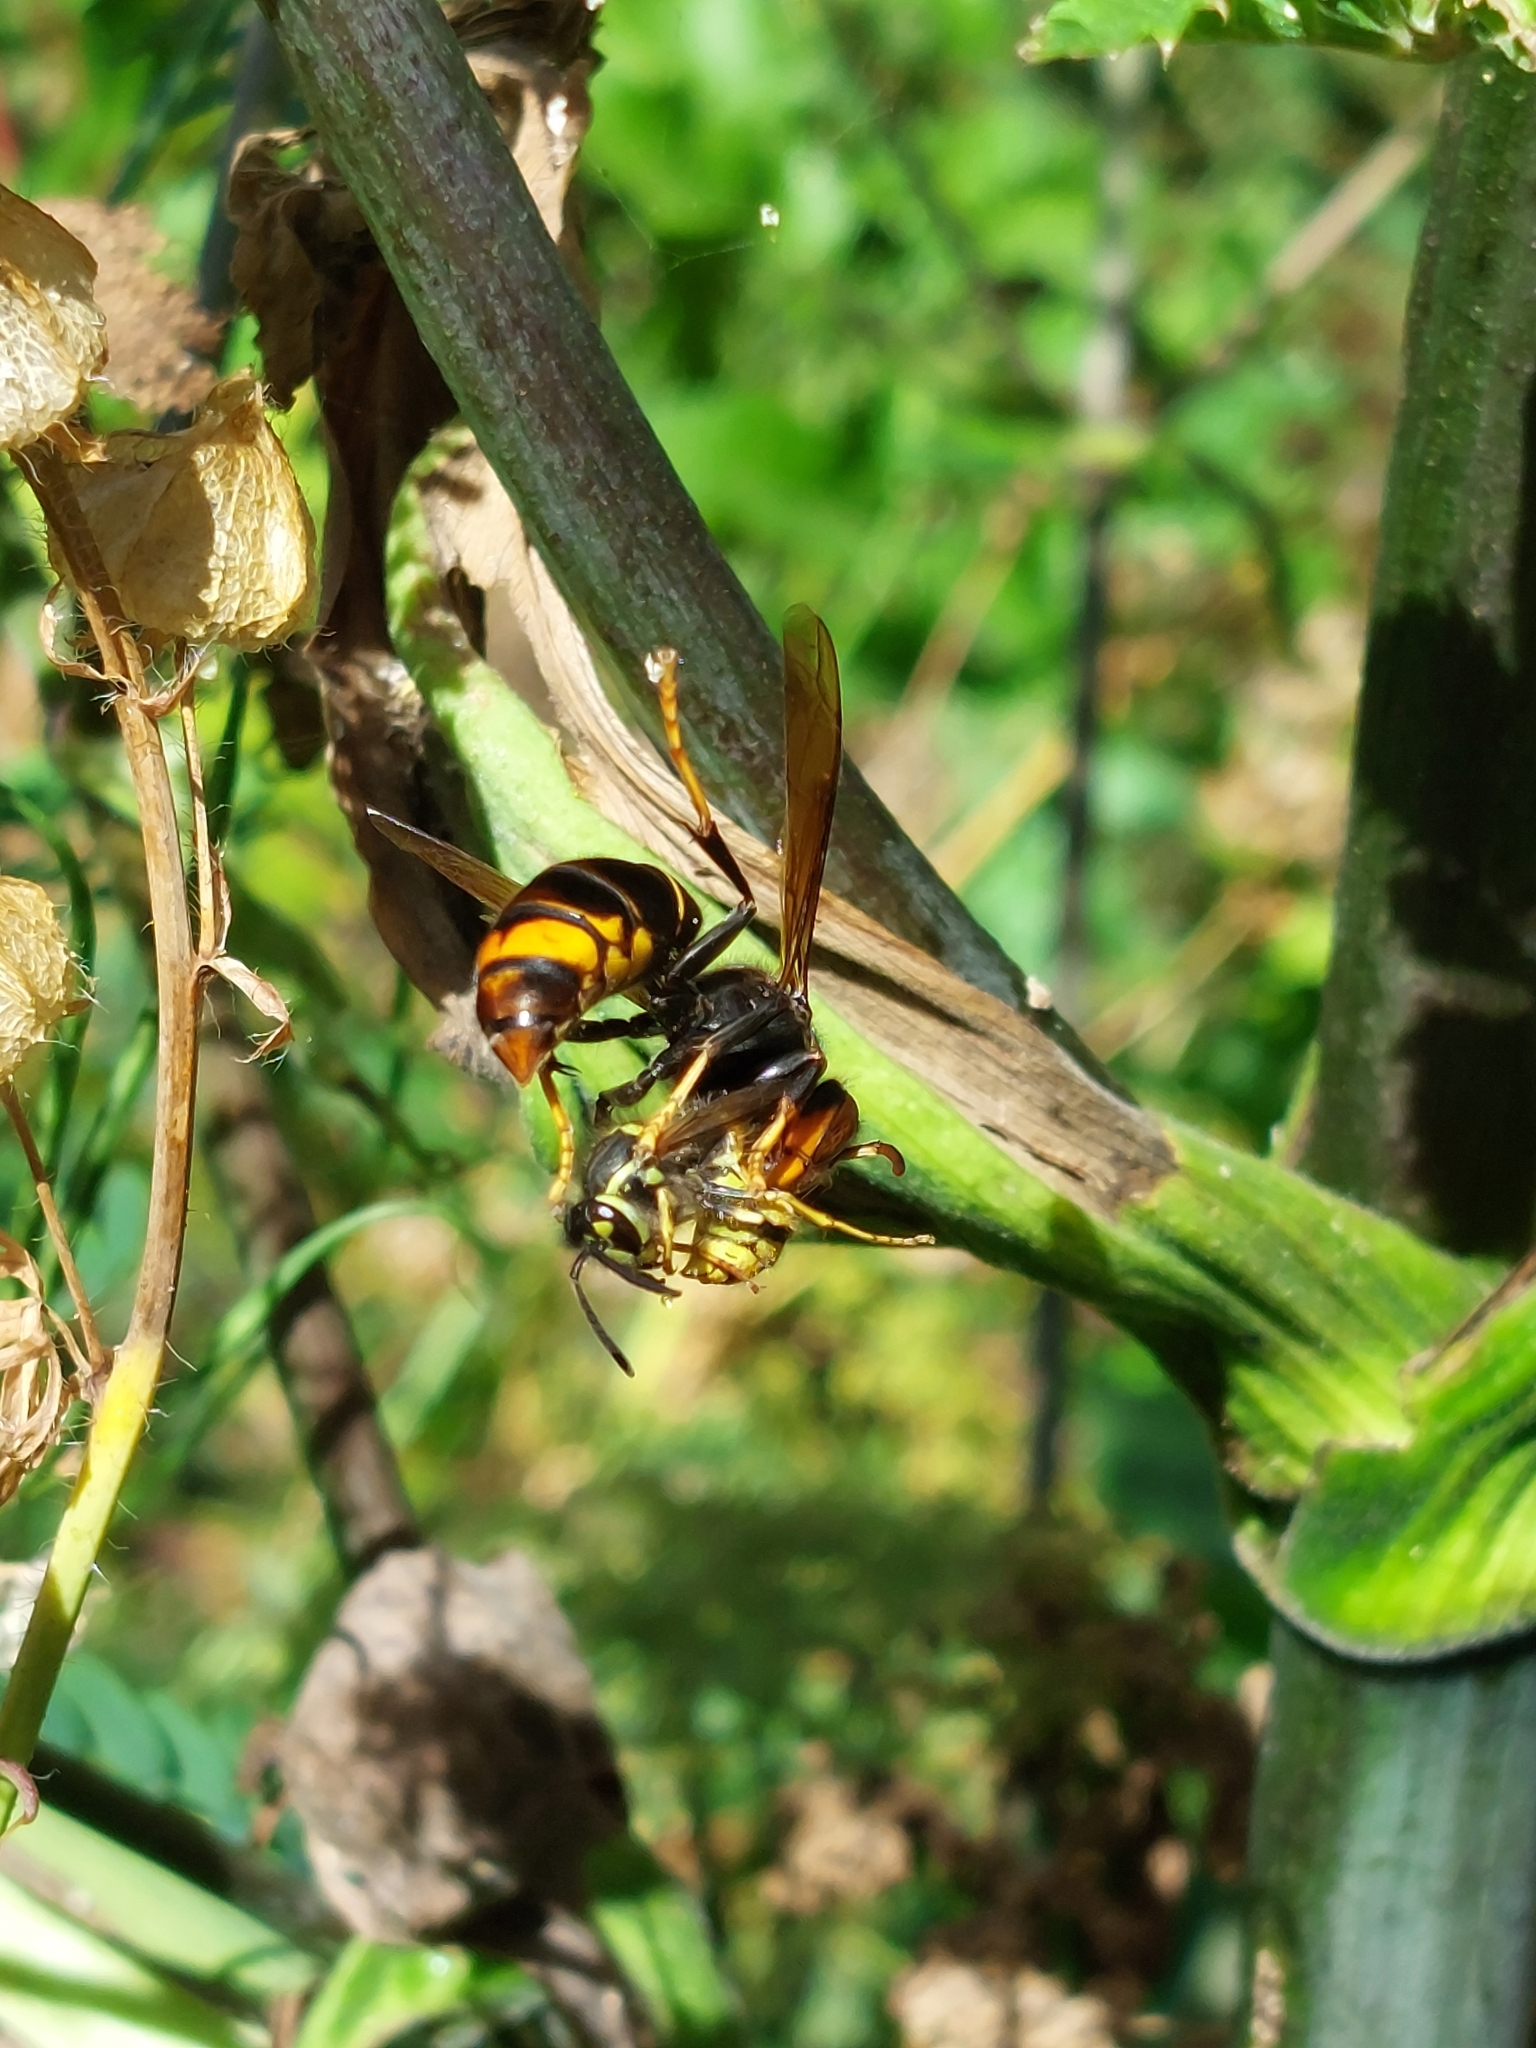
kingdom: Animalia
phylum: Arthropoda
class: Insecta
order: Hymenoptera
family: Vespidae
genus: Vespa
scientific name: Vespa velutina
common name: Asian hornet
